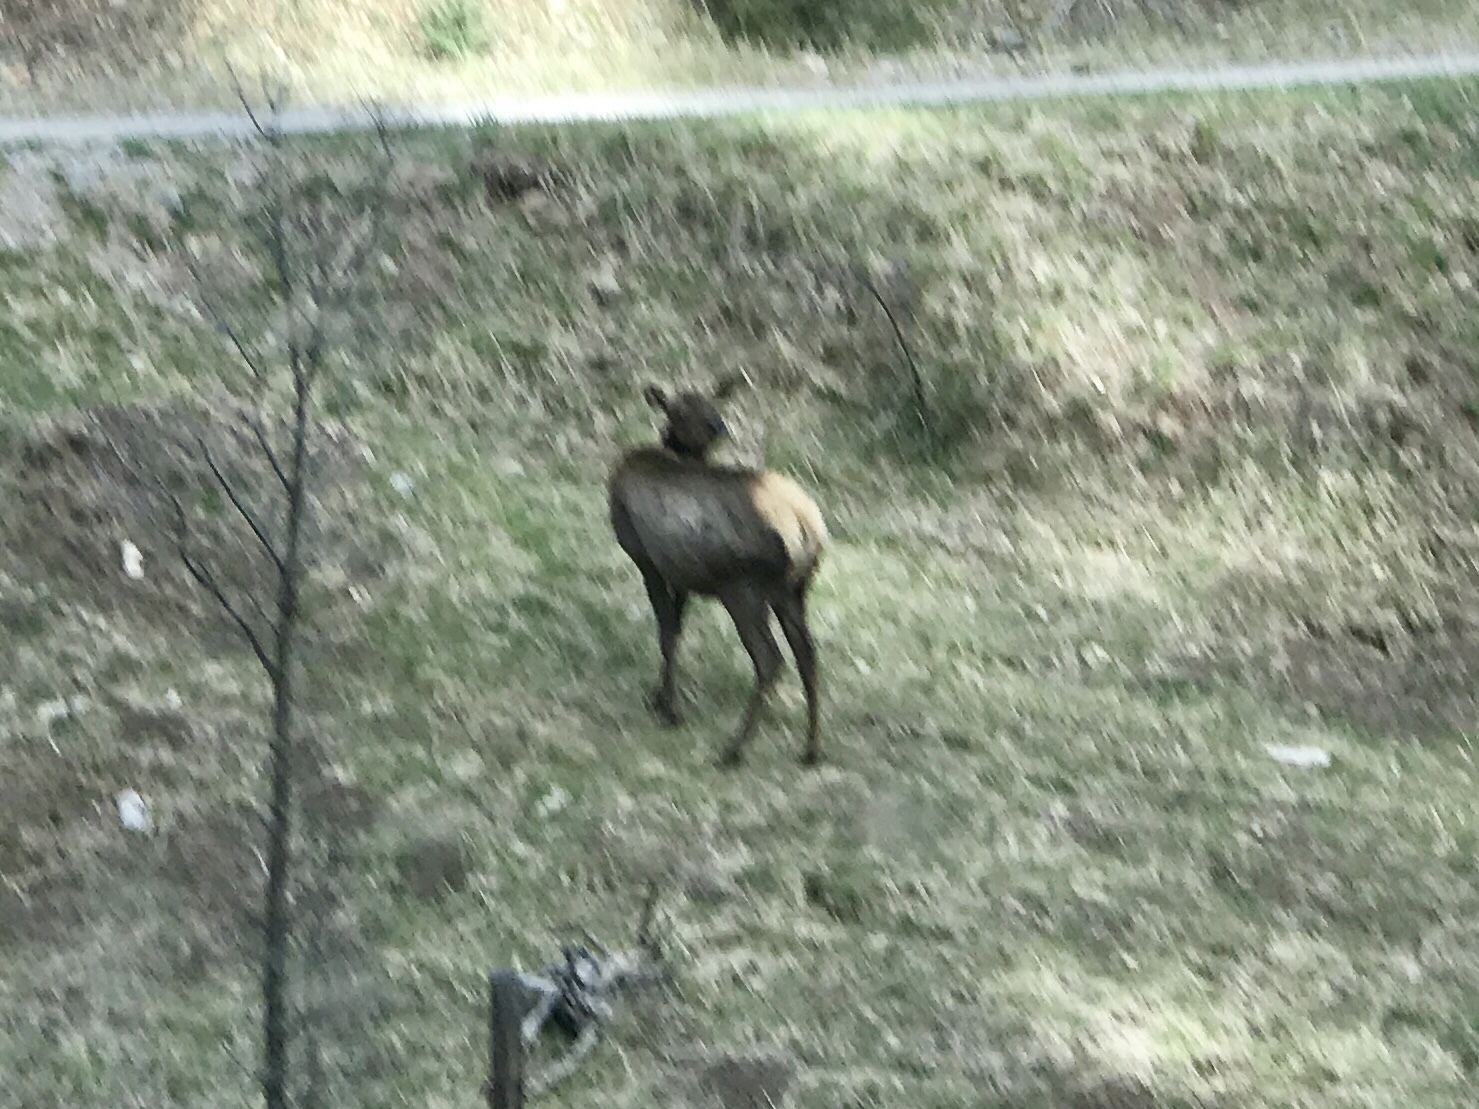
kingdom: Animalia
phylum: Chordata
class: Mammalia
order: Artiodactyla
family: Cervidae
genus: Cervus
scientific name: Cervus elaphus
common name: Red deer
